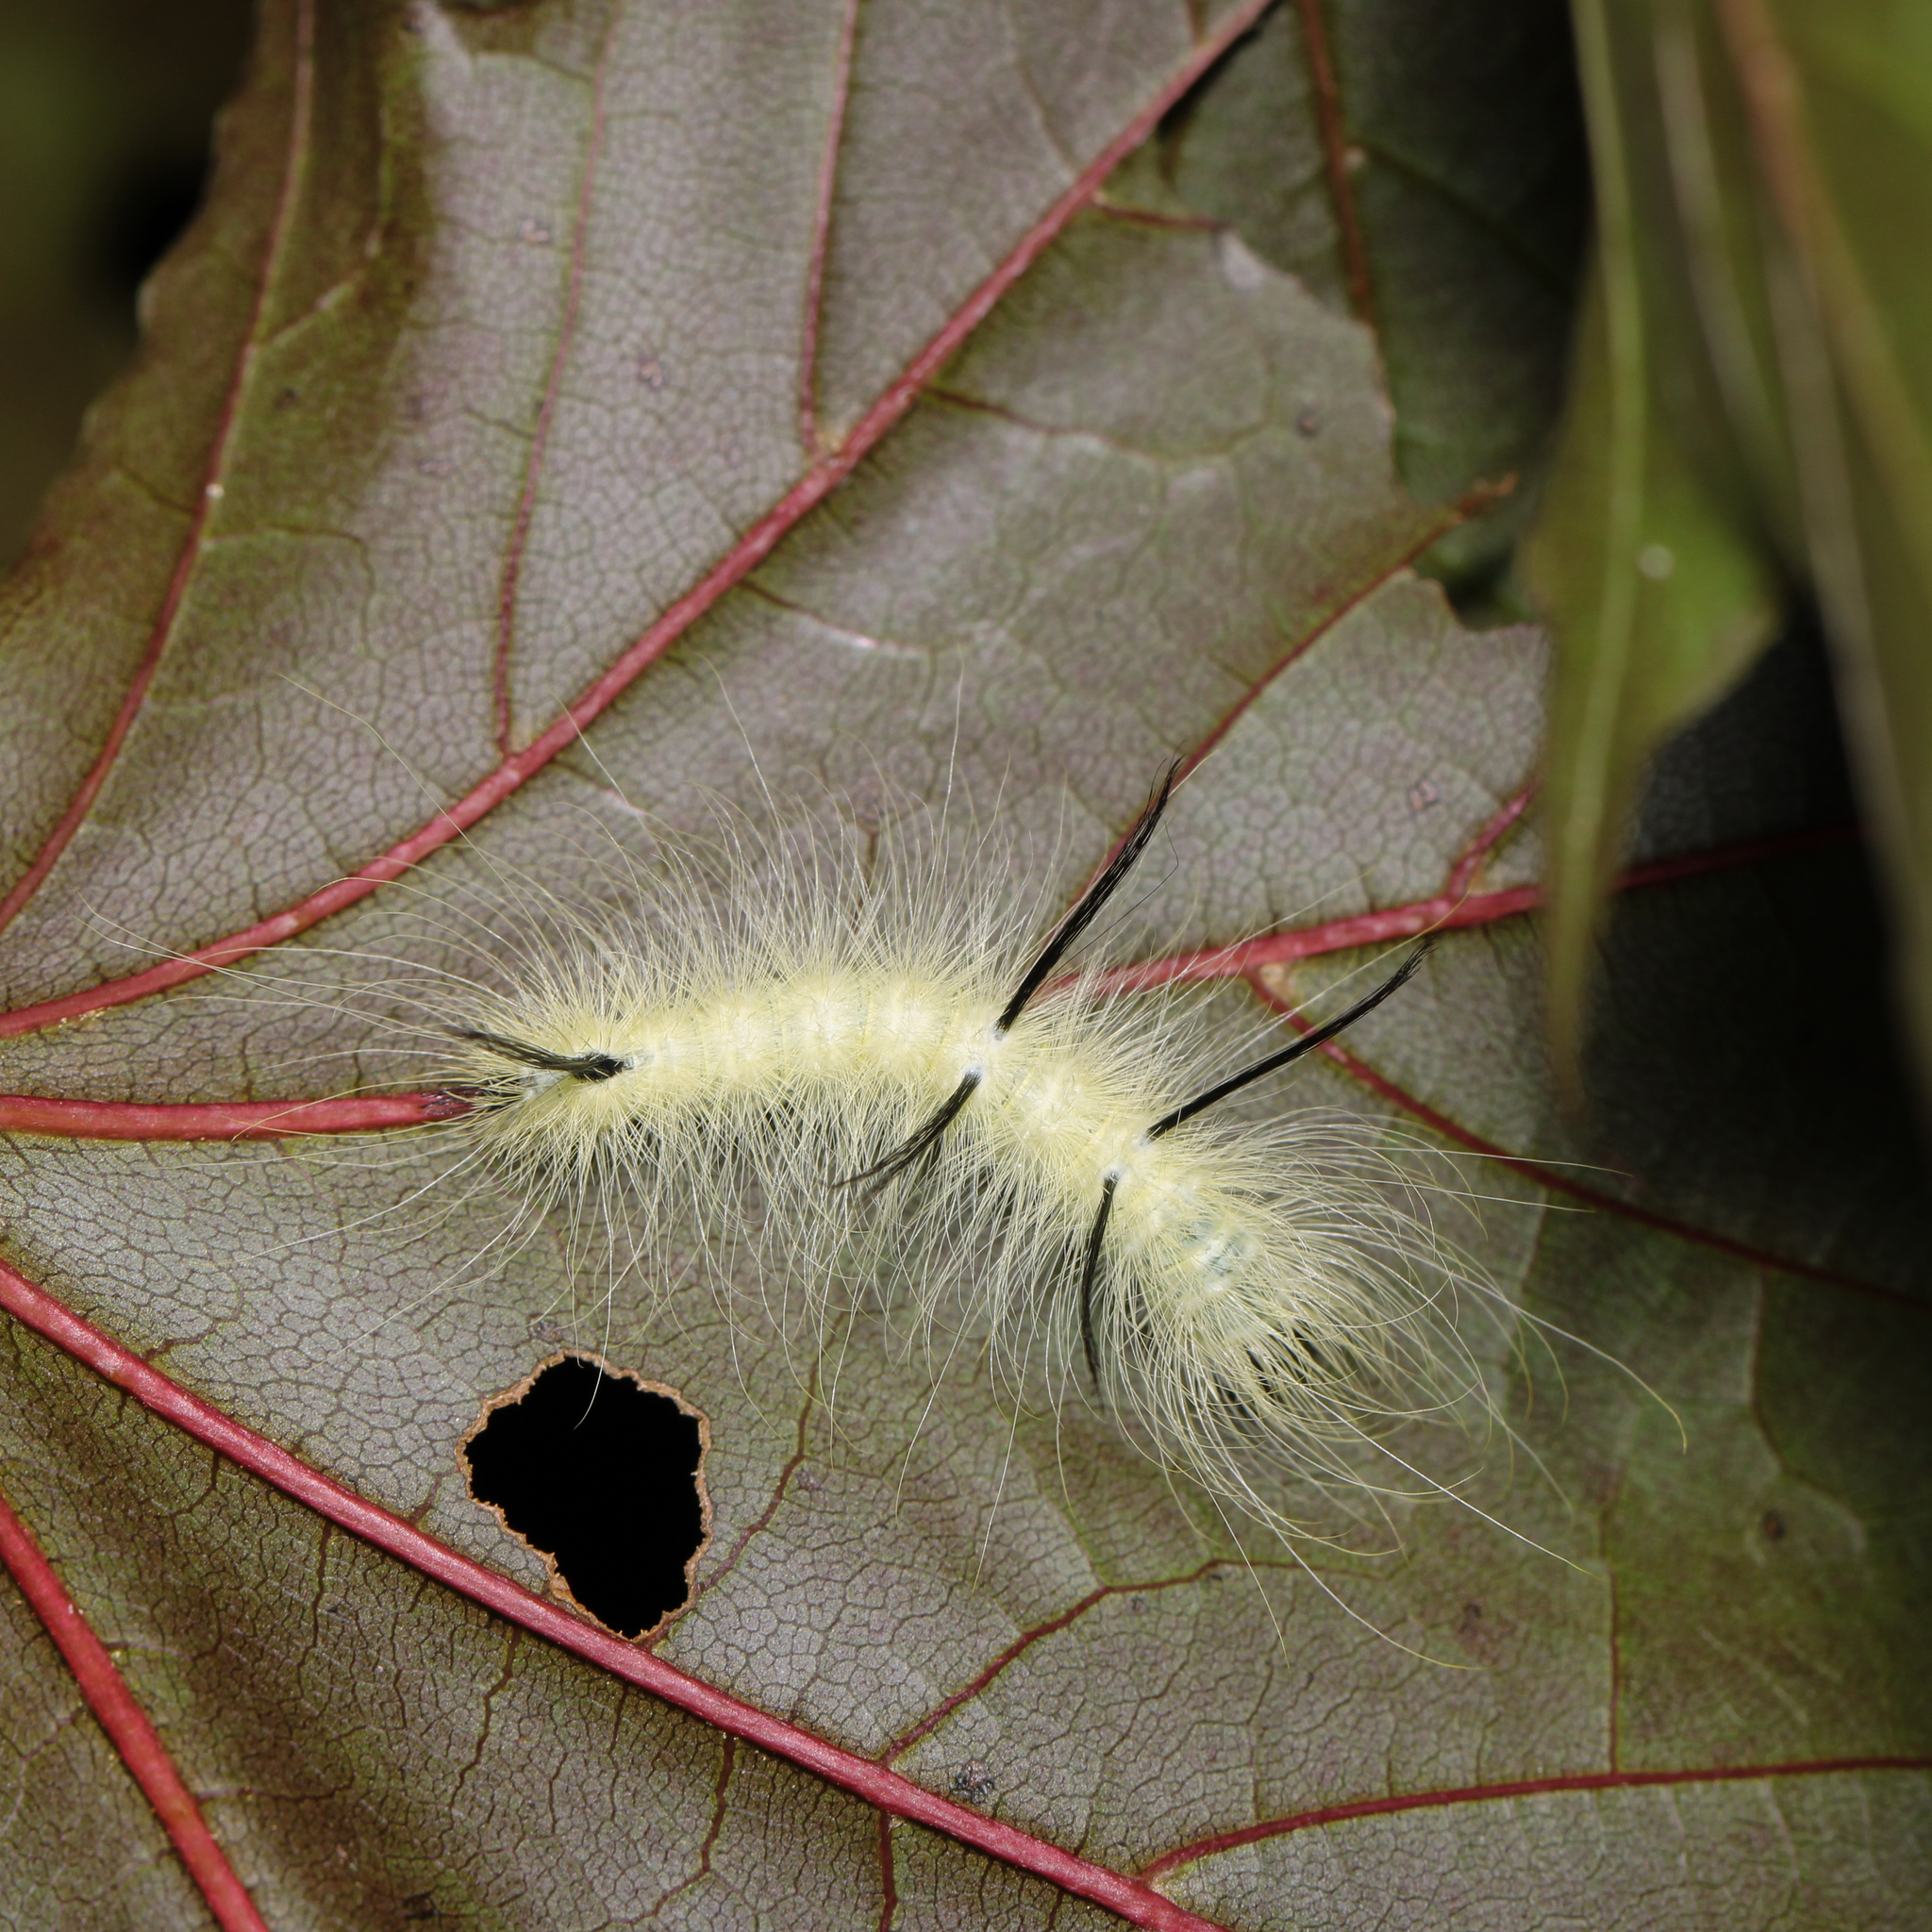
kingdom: Animalia
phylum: Arthropoda
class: Insecta
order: Lepidoptera
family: Noctuidae
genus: Acronicta
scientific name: Acronicta americana
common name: American dagger
